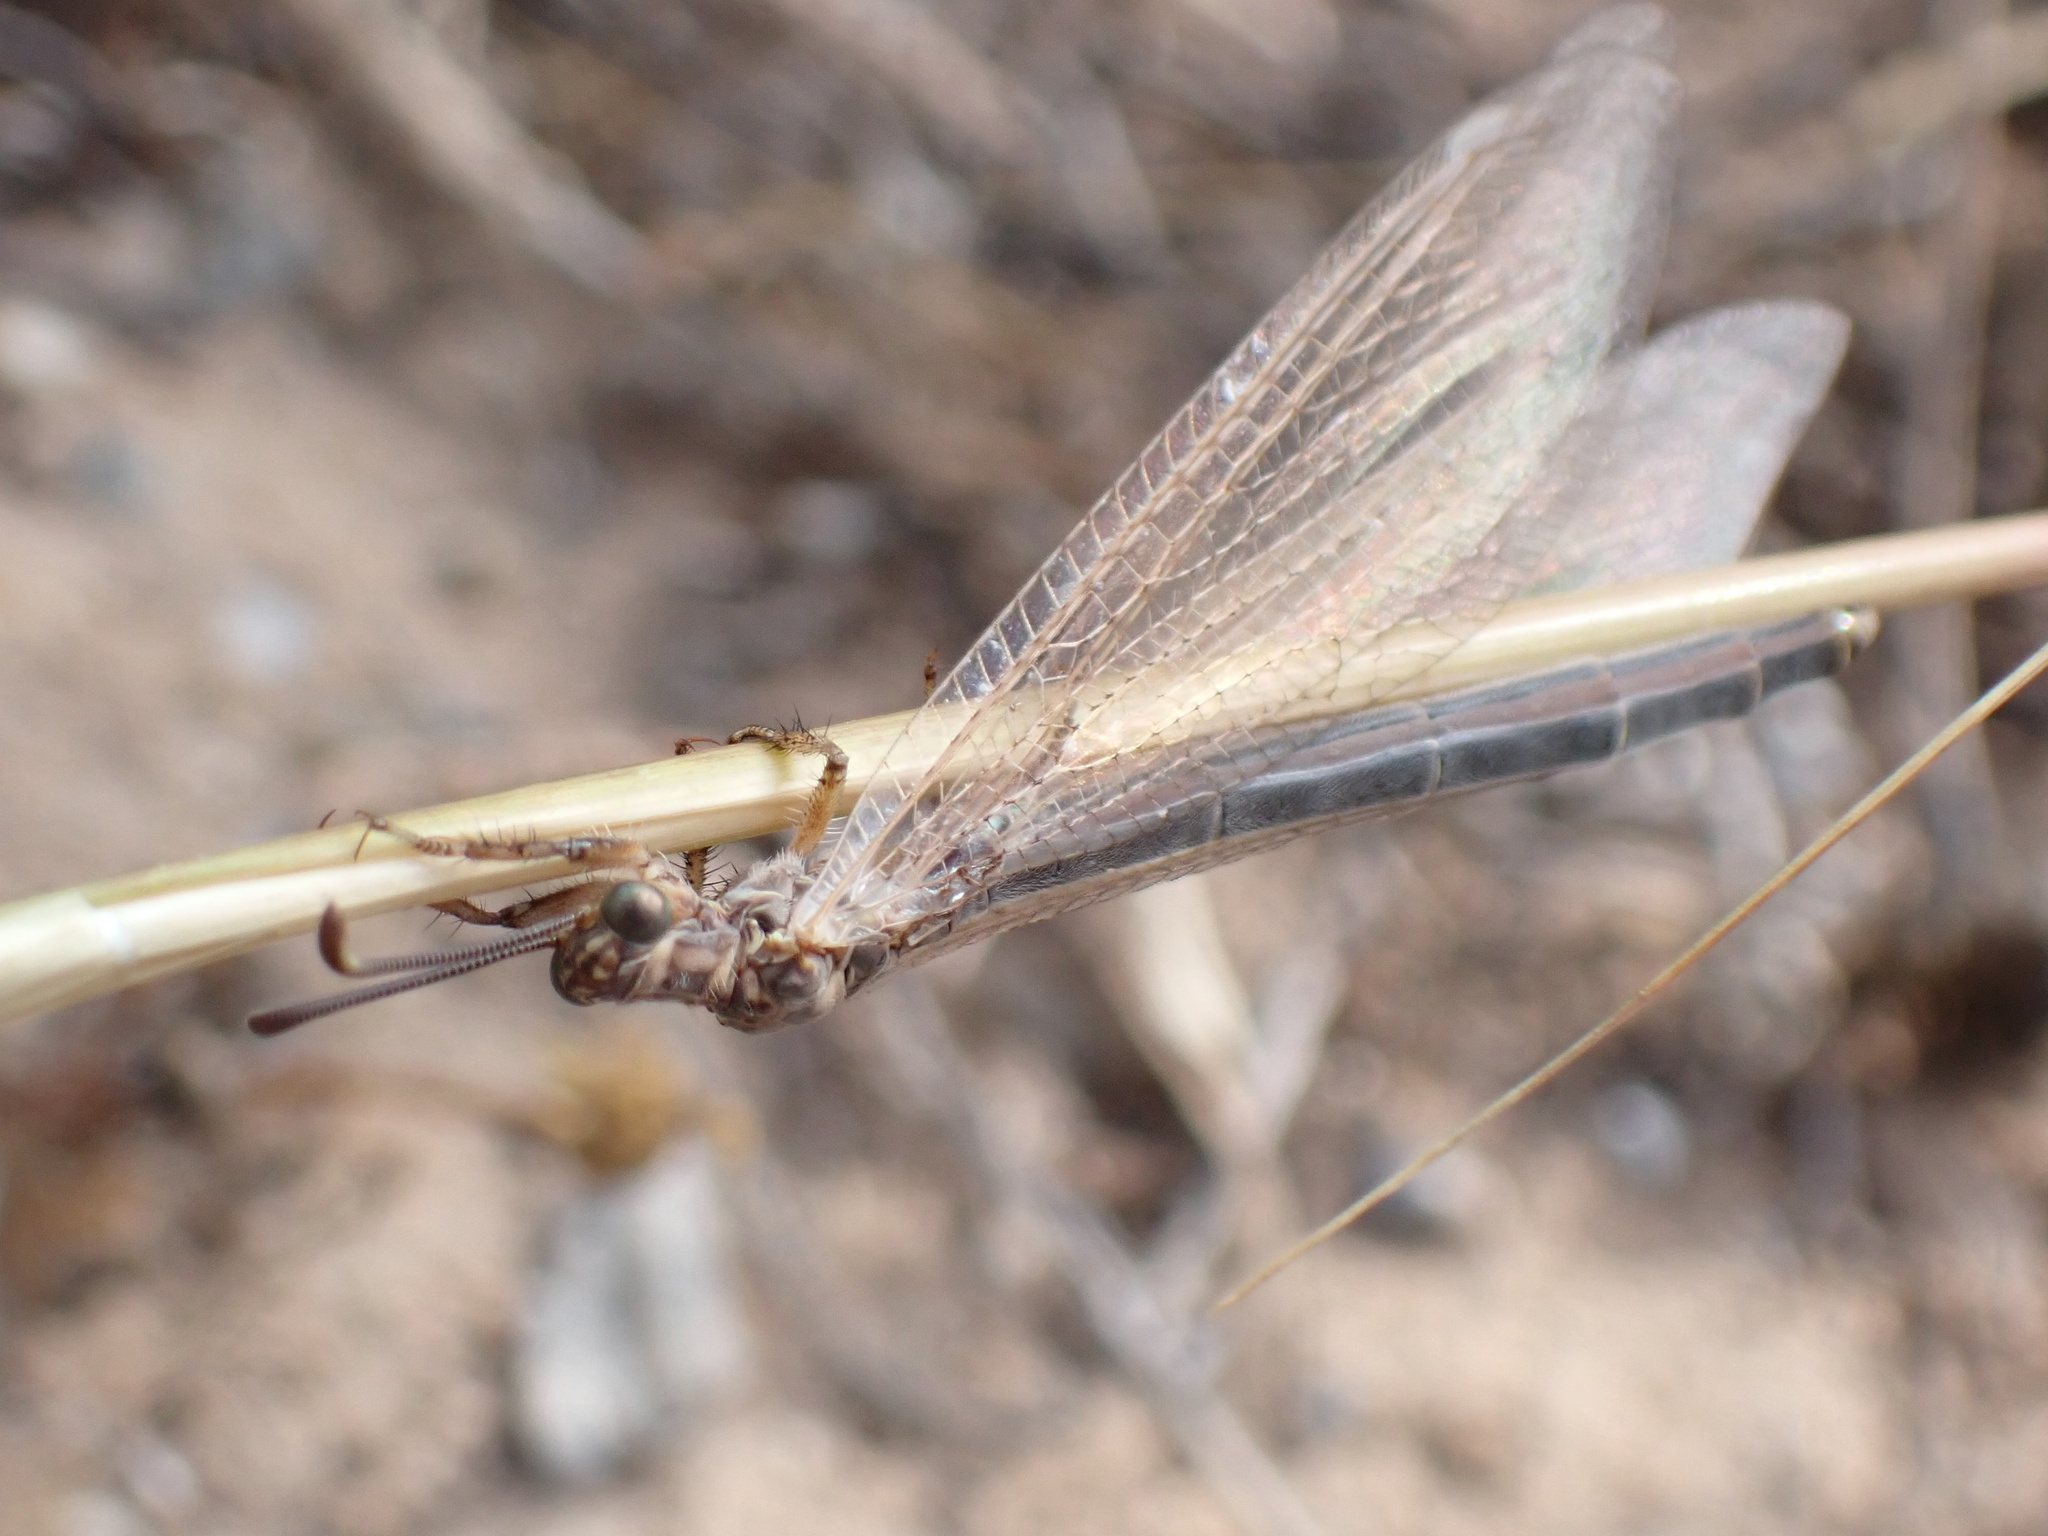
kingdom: Animalia
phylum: Arthropoda
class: Insecta
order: Neuroptera
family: Myrmeleontidae
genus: Creoleon
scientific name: Creoleon plumbeus
